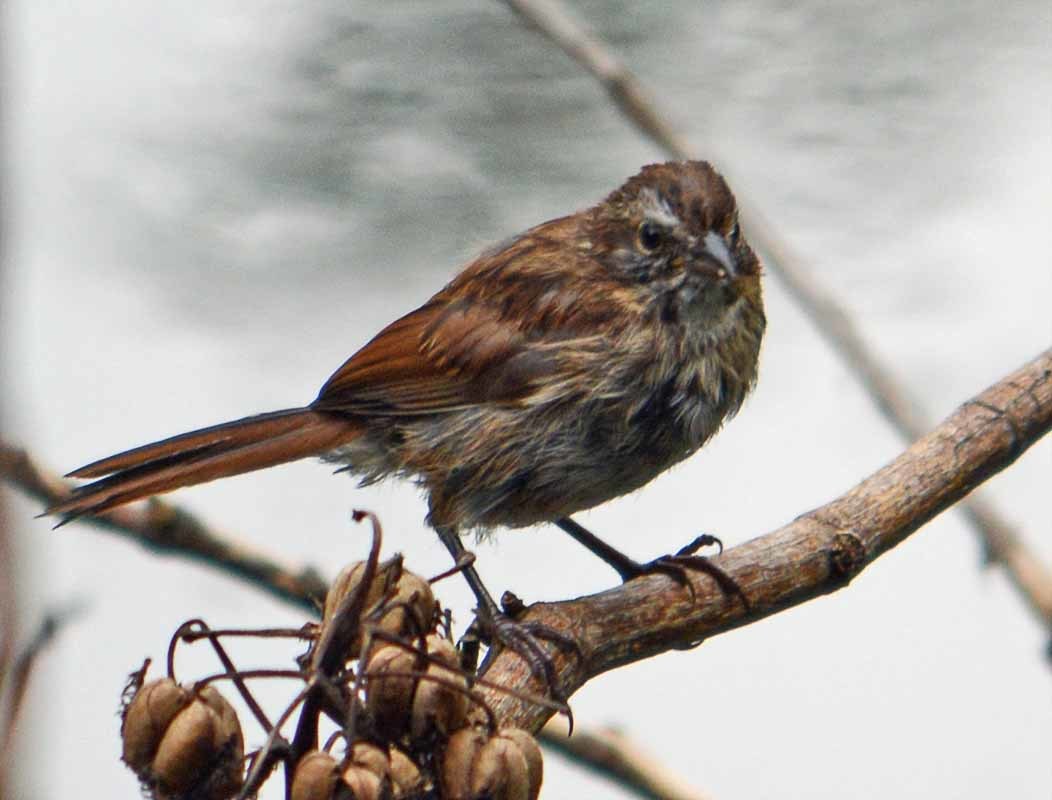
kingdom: Animalia
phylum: Chordata
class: Aves
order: Passeriformes
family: Passerellidae
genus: Melospiza
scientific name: Melospiza melodia
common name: Song sparrow
